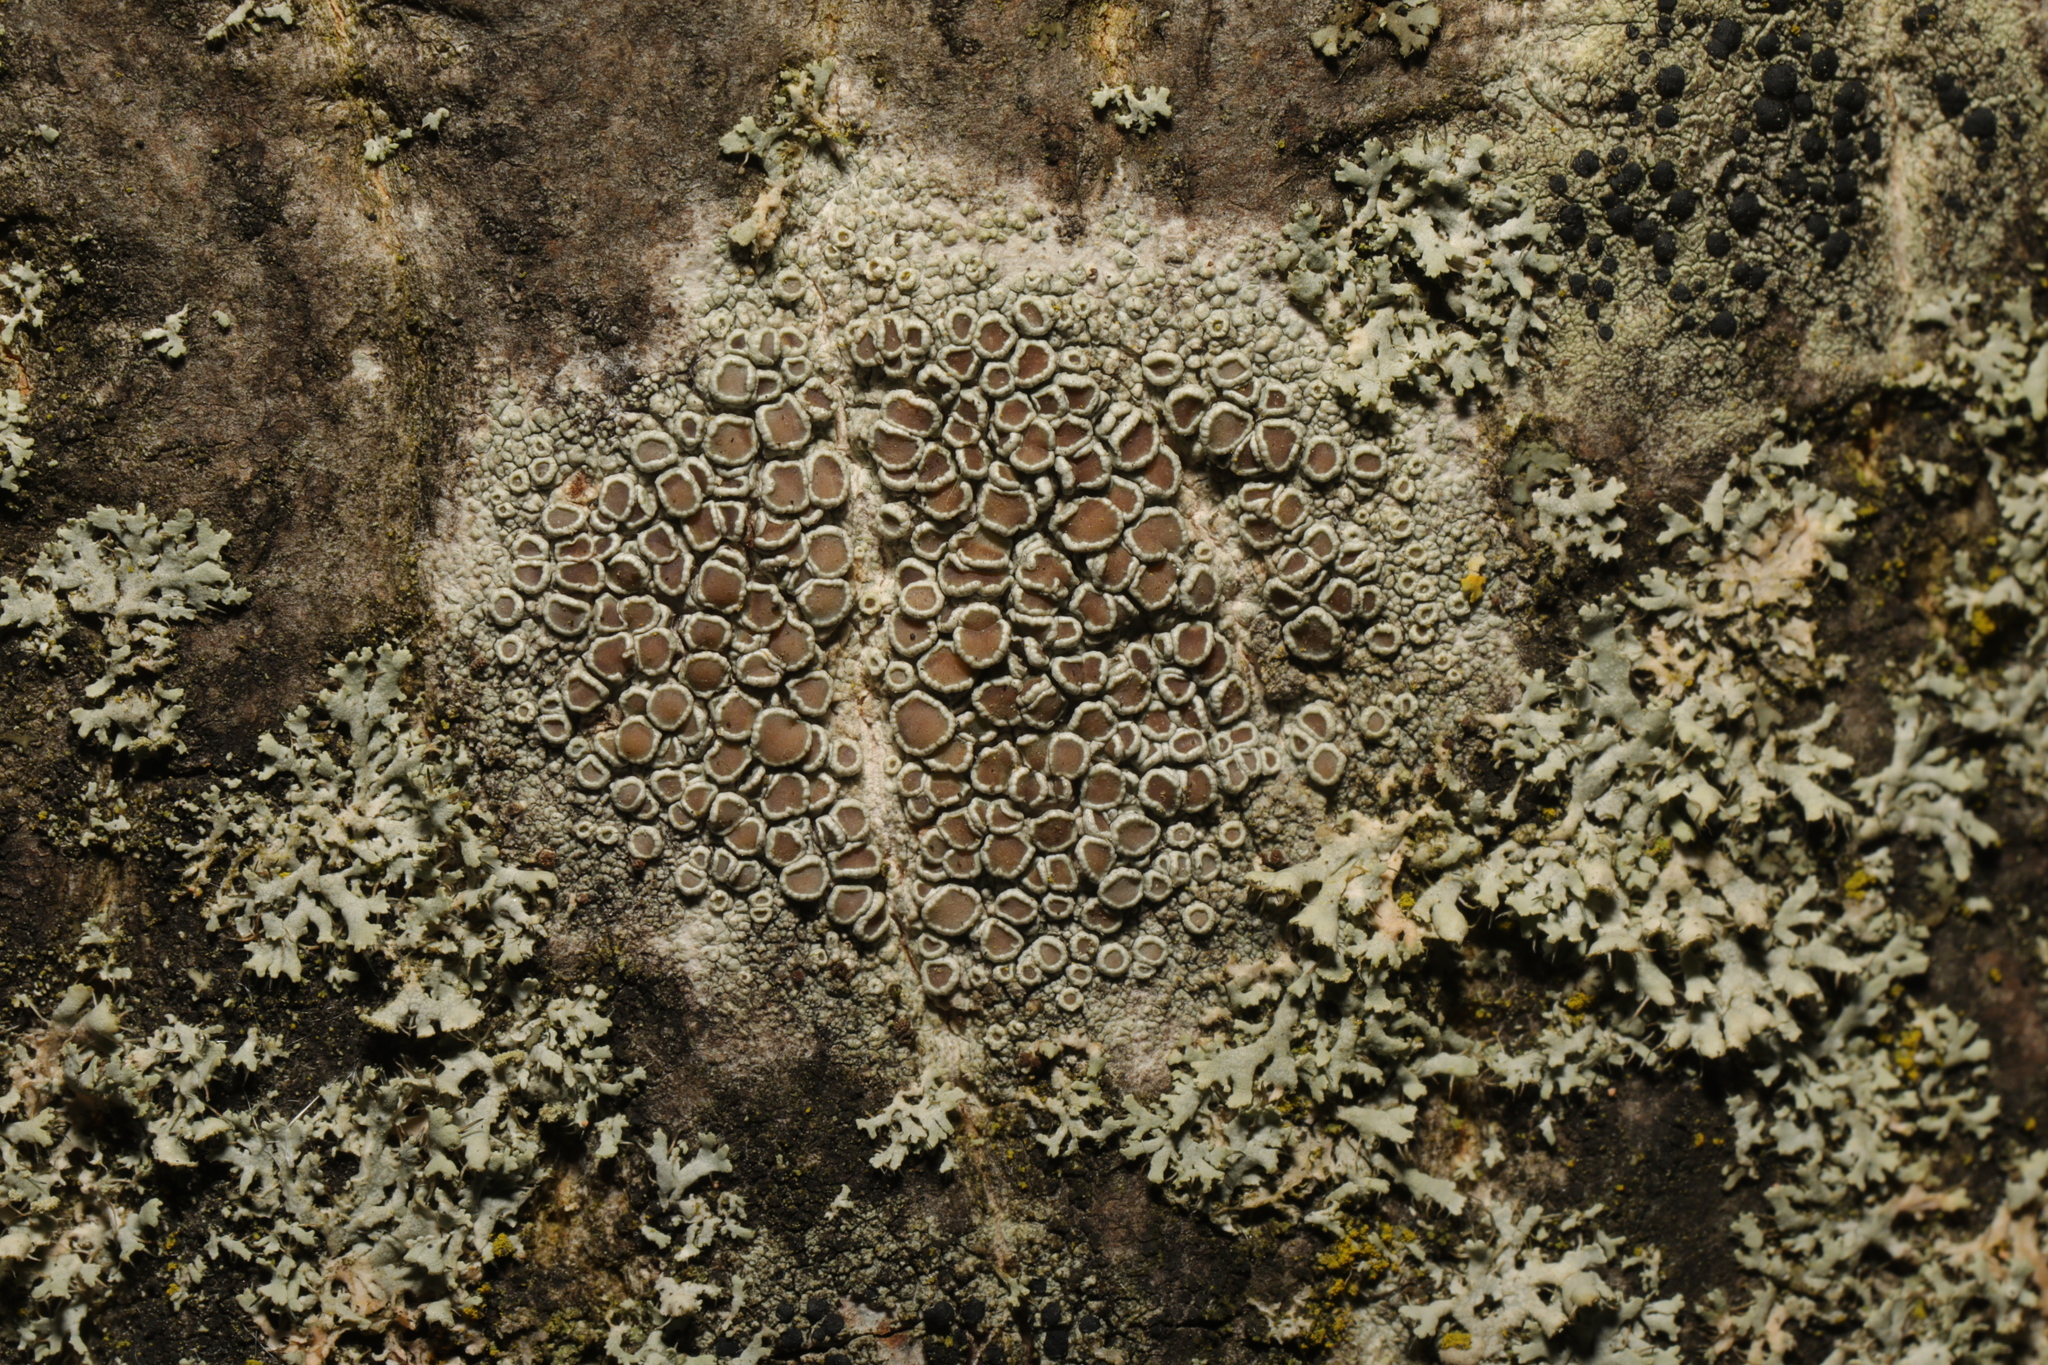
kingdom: Fungi
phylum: Ascomycota
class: Lecanoromycetes
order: Lecanorales
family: Lecanoraceae
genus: Lecanora
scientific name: Lecanora chlarotera
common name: Brown rim-lichen
